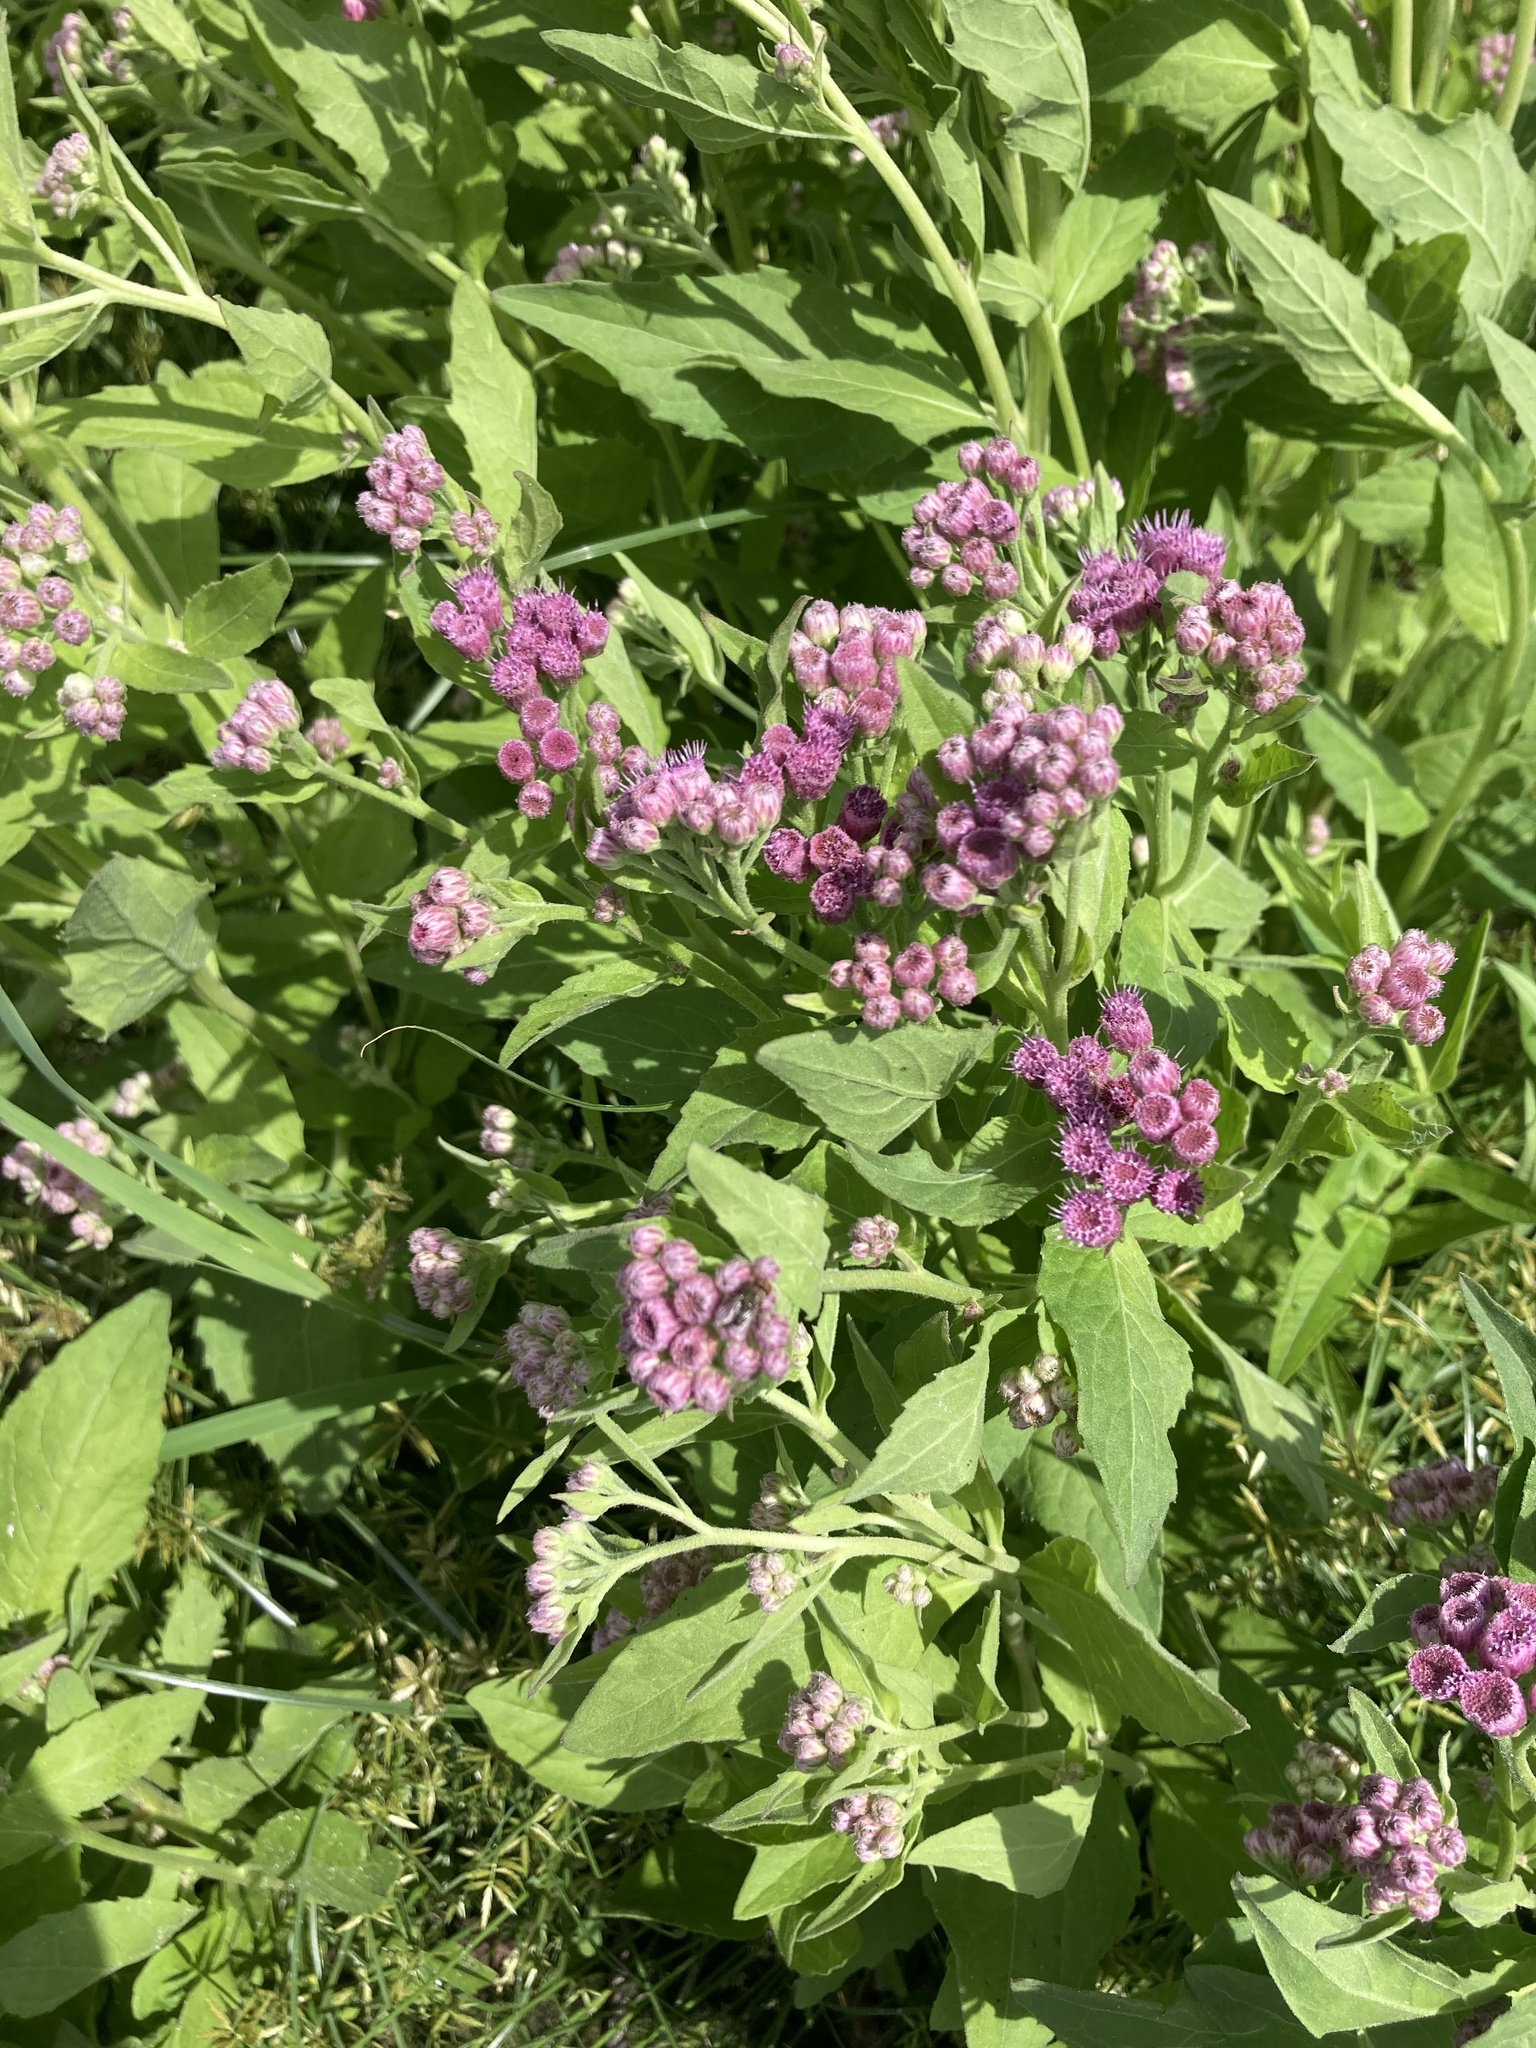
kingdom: Plantae
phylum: Tracheophyta
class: Magnoliopsida
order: Asterales
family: Asteraceae
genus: Pluchea
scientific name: Pluchea odorata
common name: Saltmarsh fleabane
